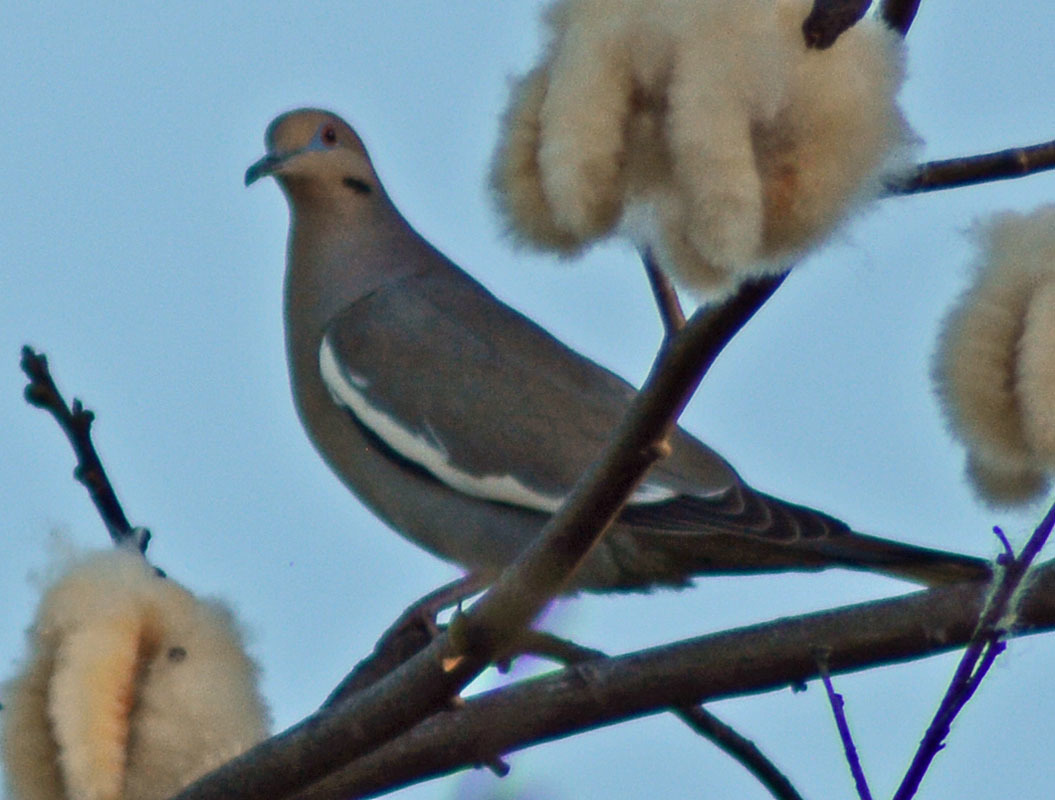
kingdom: Animalia
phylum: Chordata
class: Aves
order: Columbiformes
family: Columbidae
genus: Zenaida
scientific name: Zenaida asiatica
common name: White-winged dove
